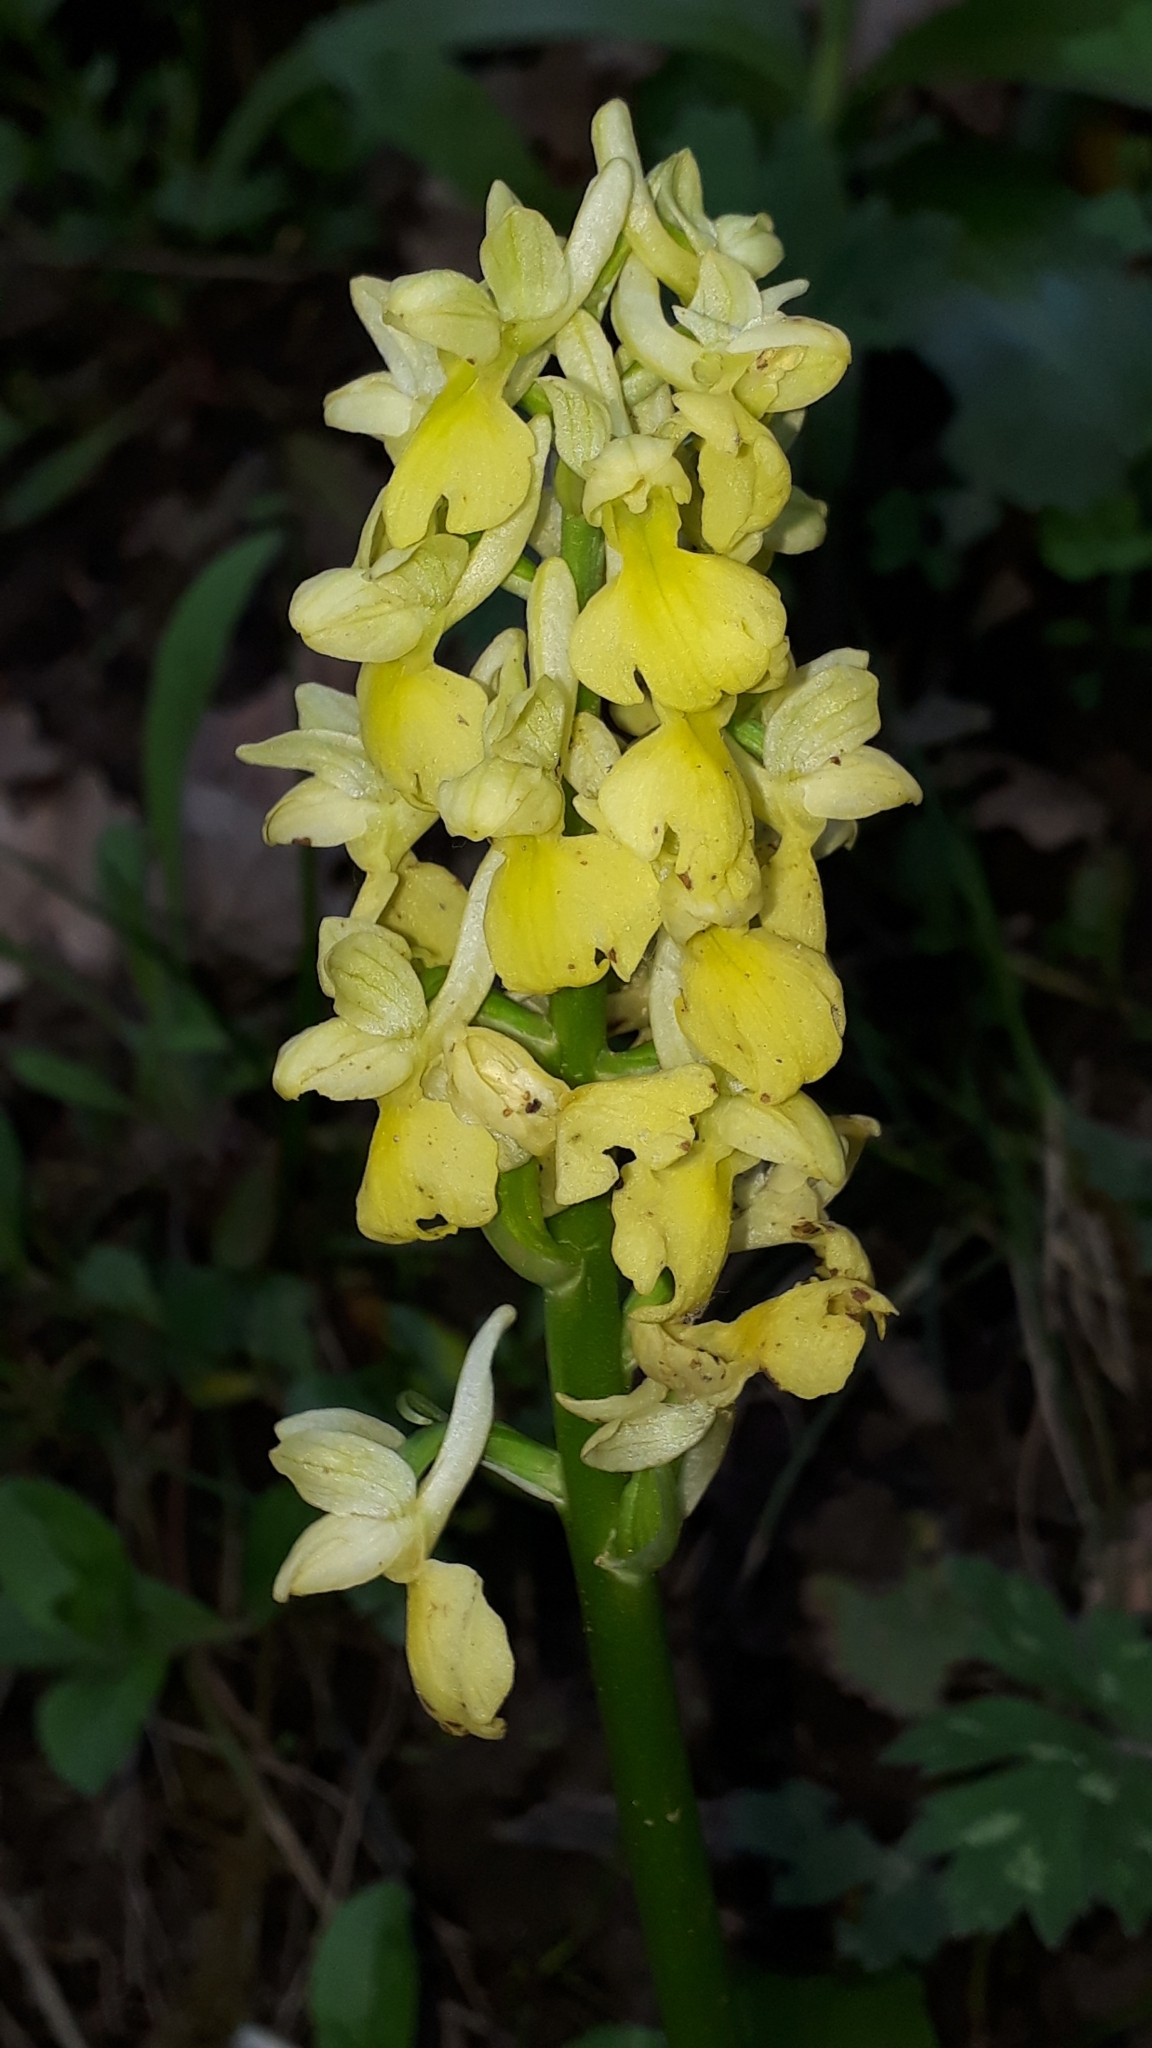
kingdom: Plantae
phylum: Tracheophyta
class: Liliopsida
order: Asparagales
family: Orchidaceae
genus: Orchis
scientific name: Orchis pallens
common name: Pale-flowered orchid
